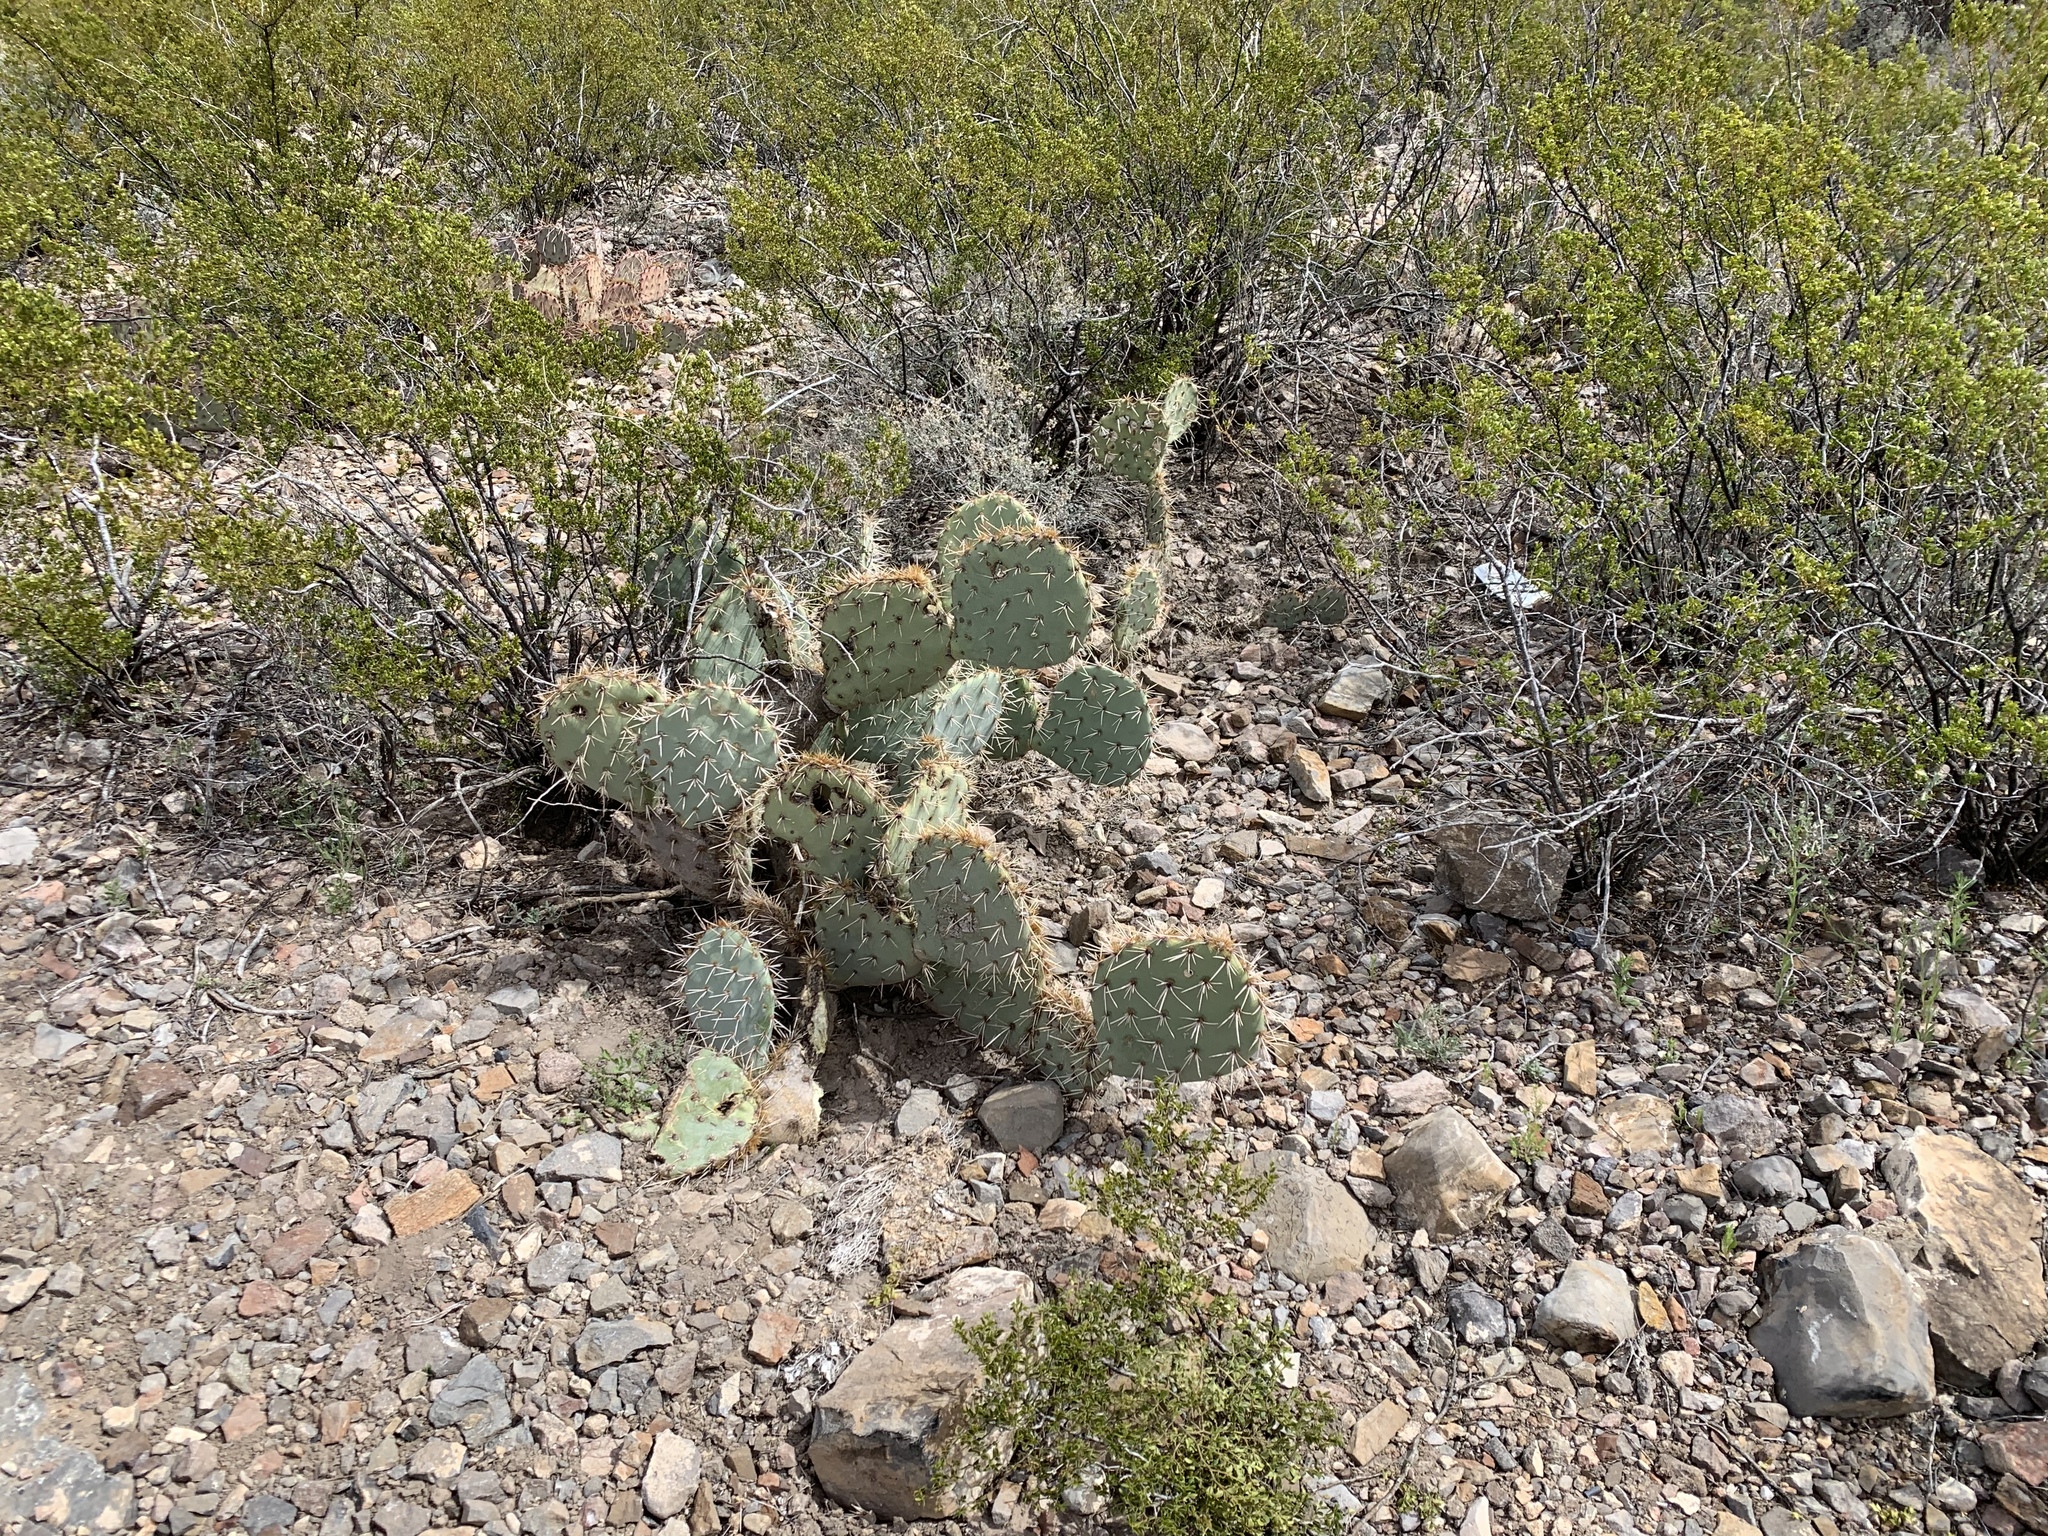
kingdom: Plantae
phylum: Tracheophyta
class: Magnoliopsida
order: Caryophyllales
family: Cactaceae
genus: Opuntia
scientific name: Opuntia engelmannii
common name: Cactus-apple
